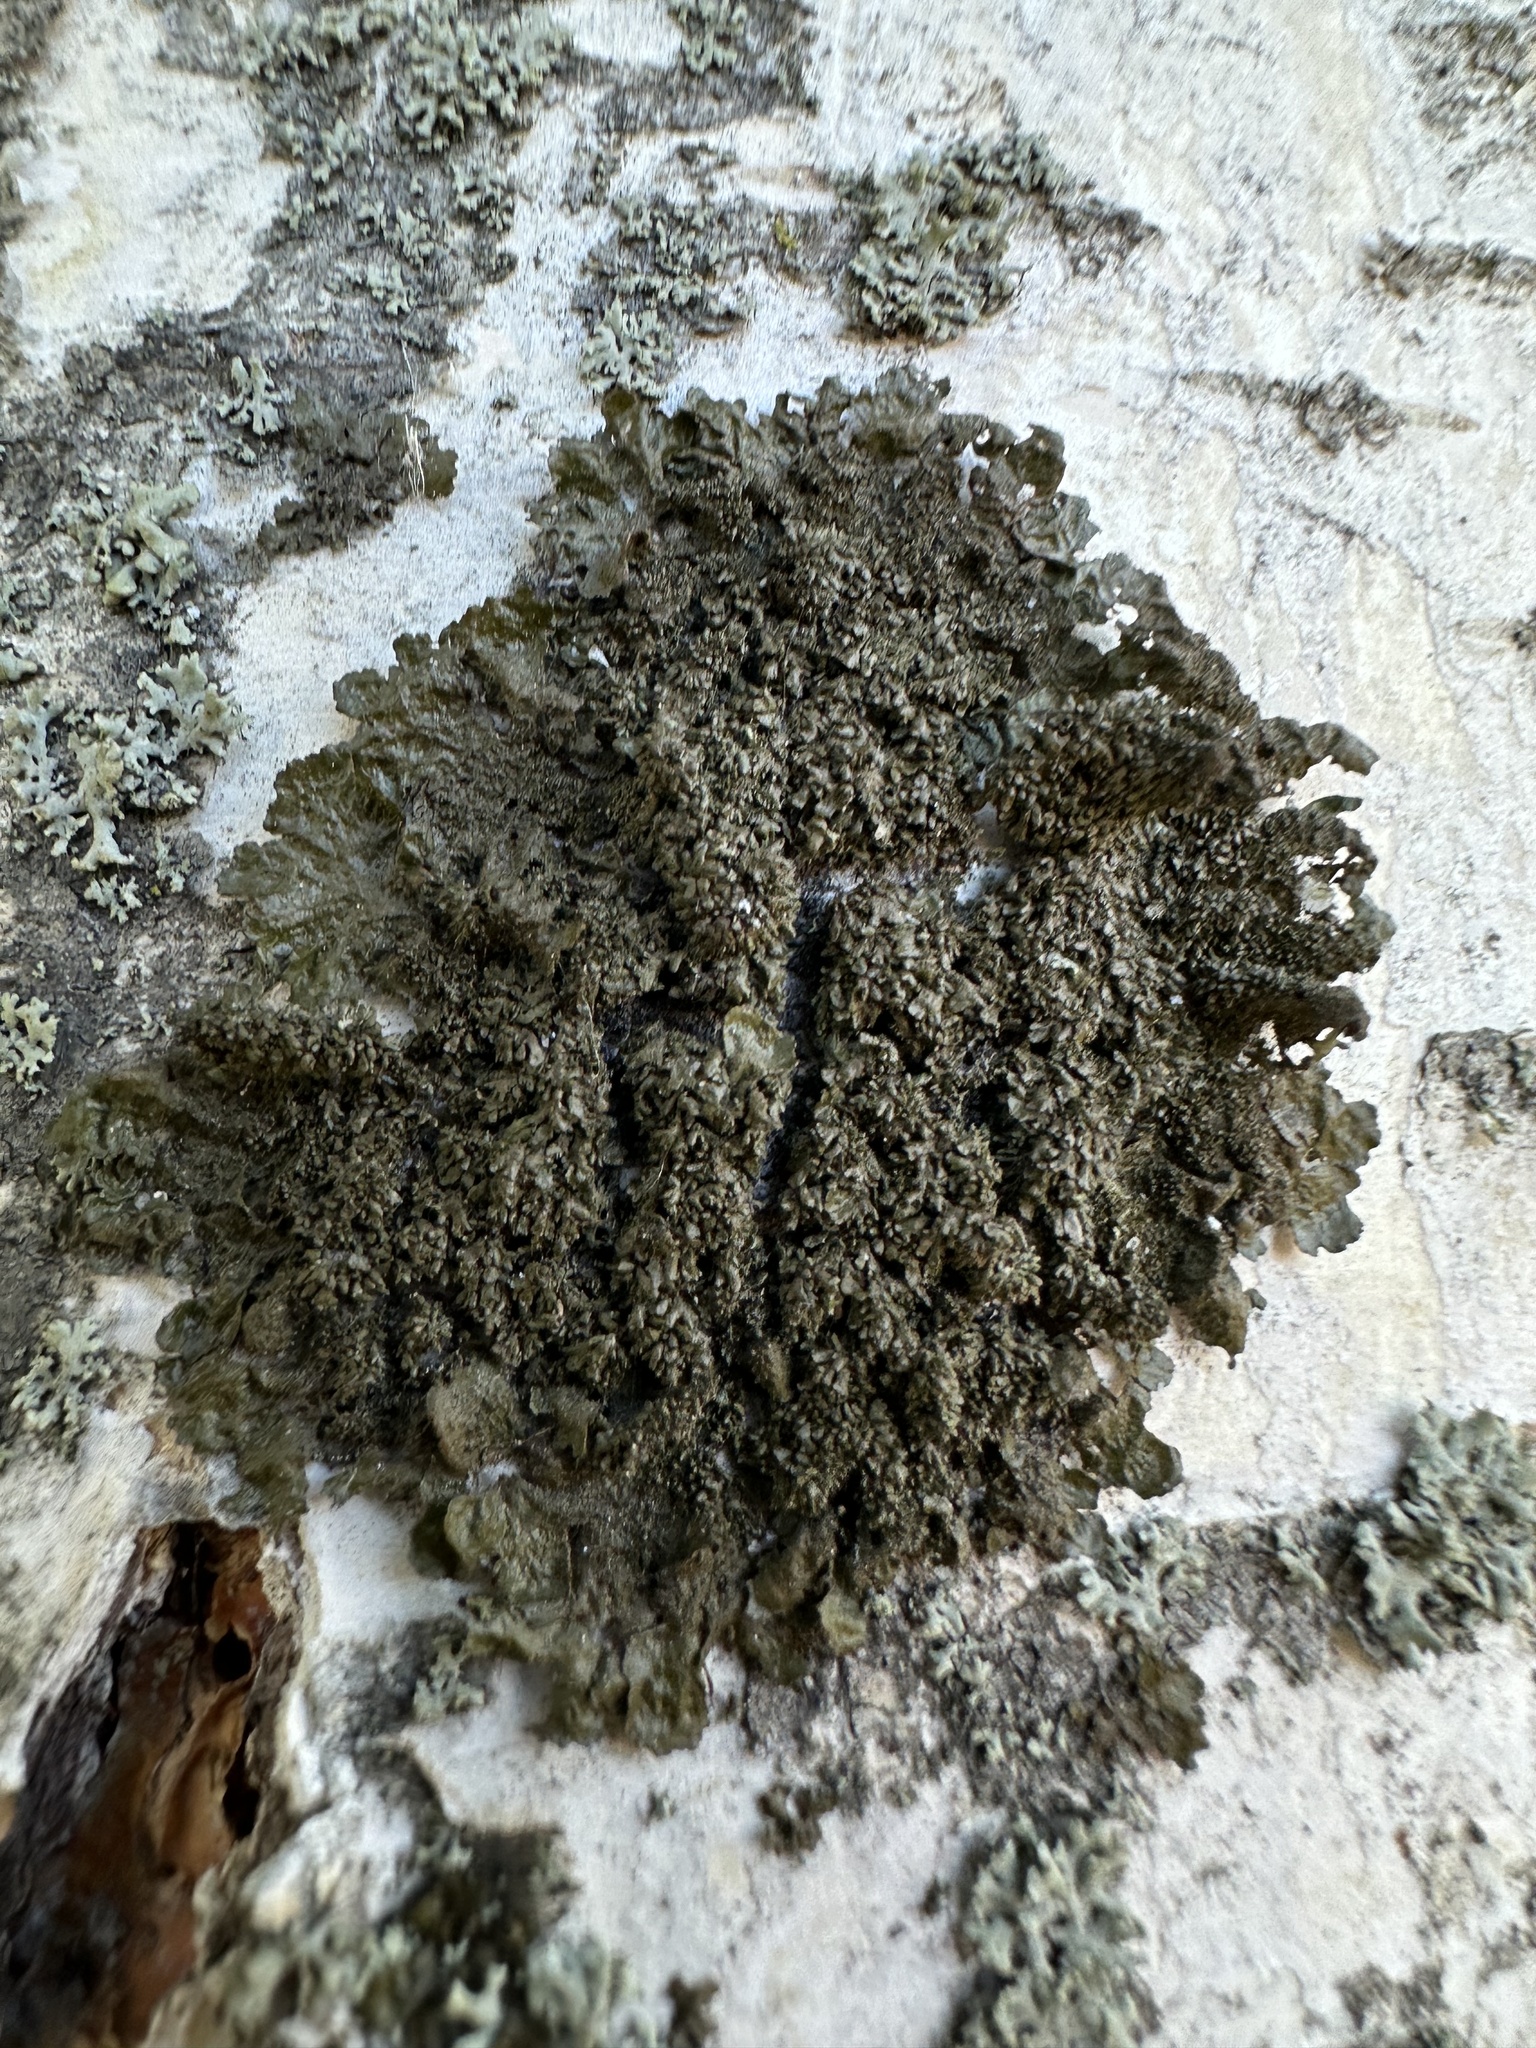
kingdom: Fungi
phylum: Ascomycota
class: Lecanoromycetes
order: Lecanorales
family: Parmeliaceae
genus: Melanohalea
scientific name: Melanohalea exasperatula
